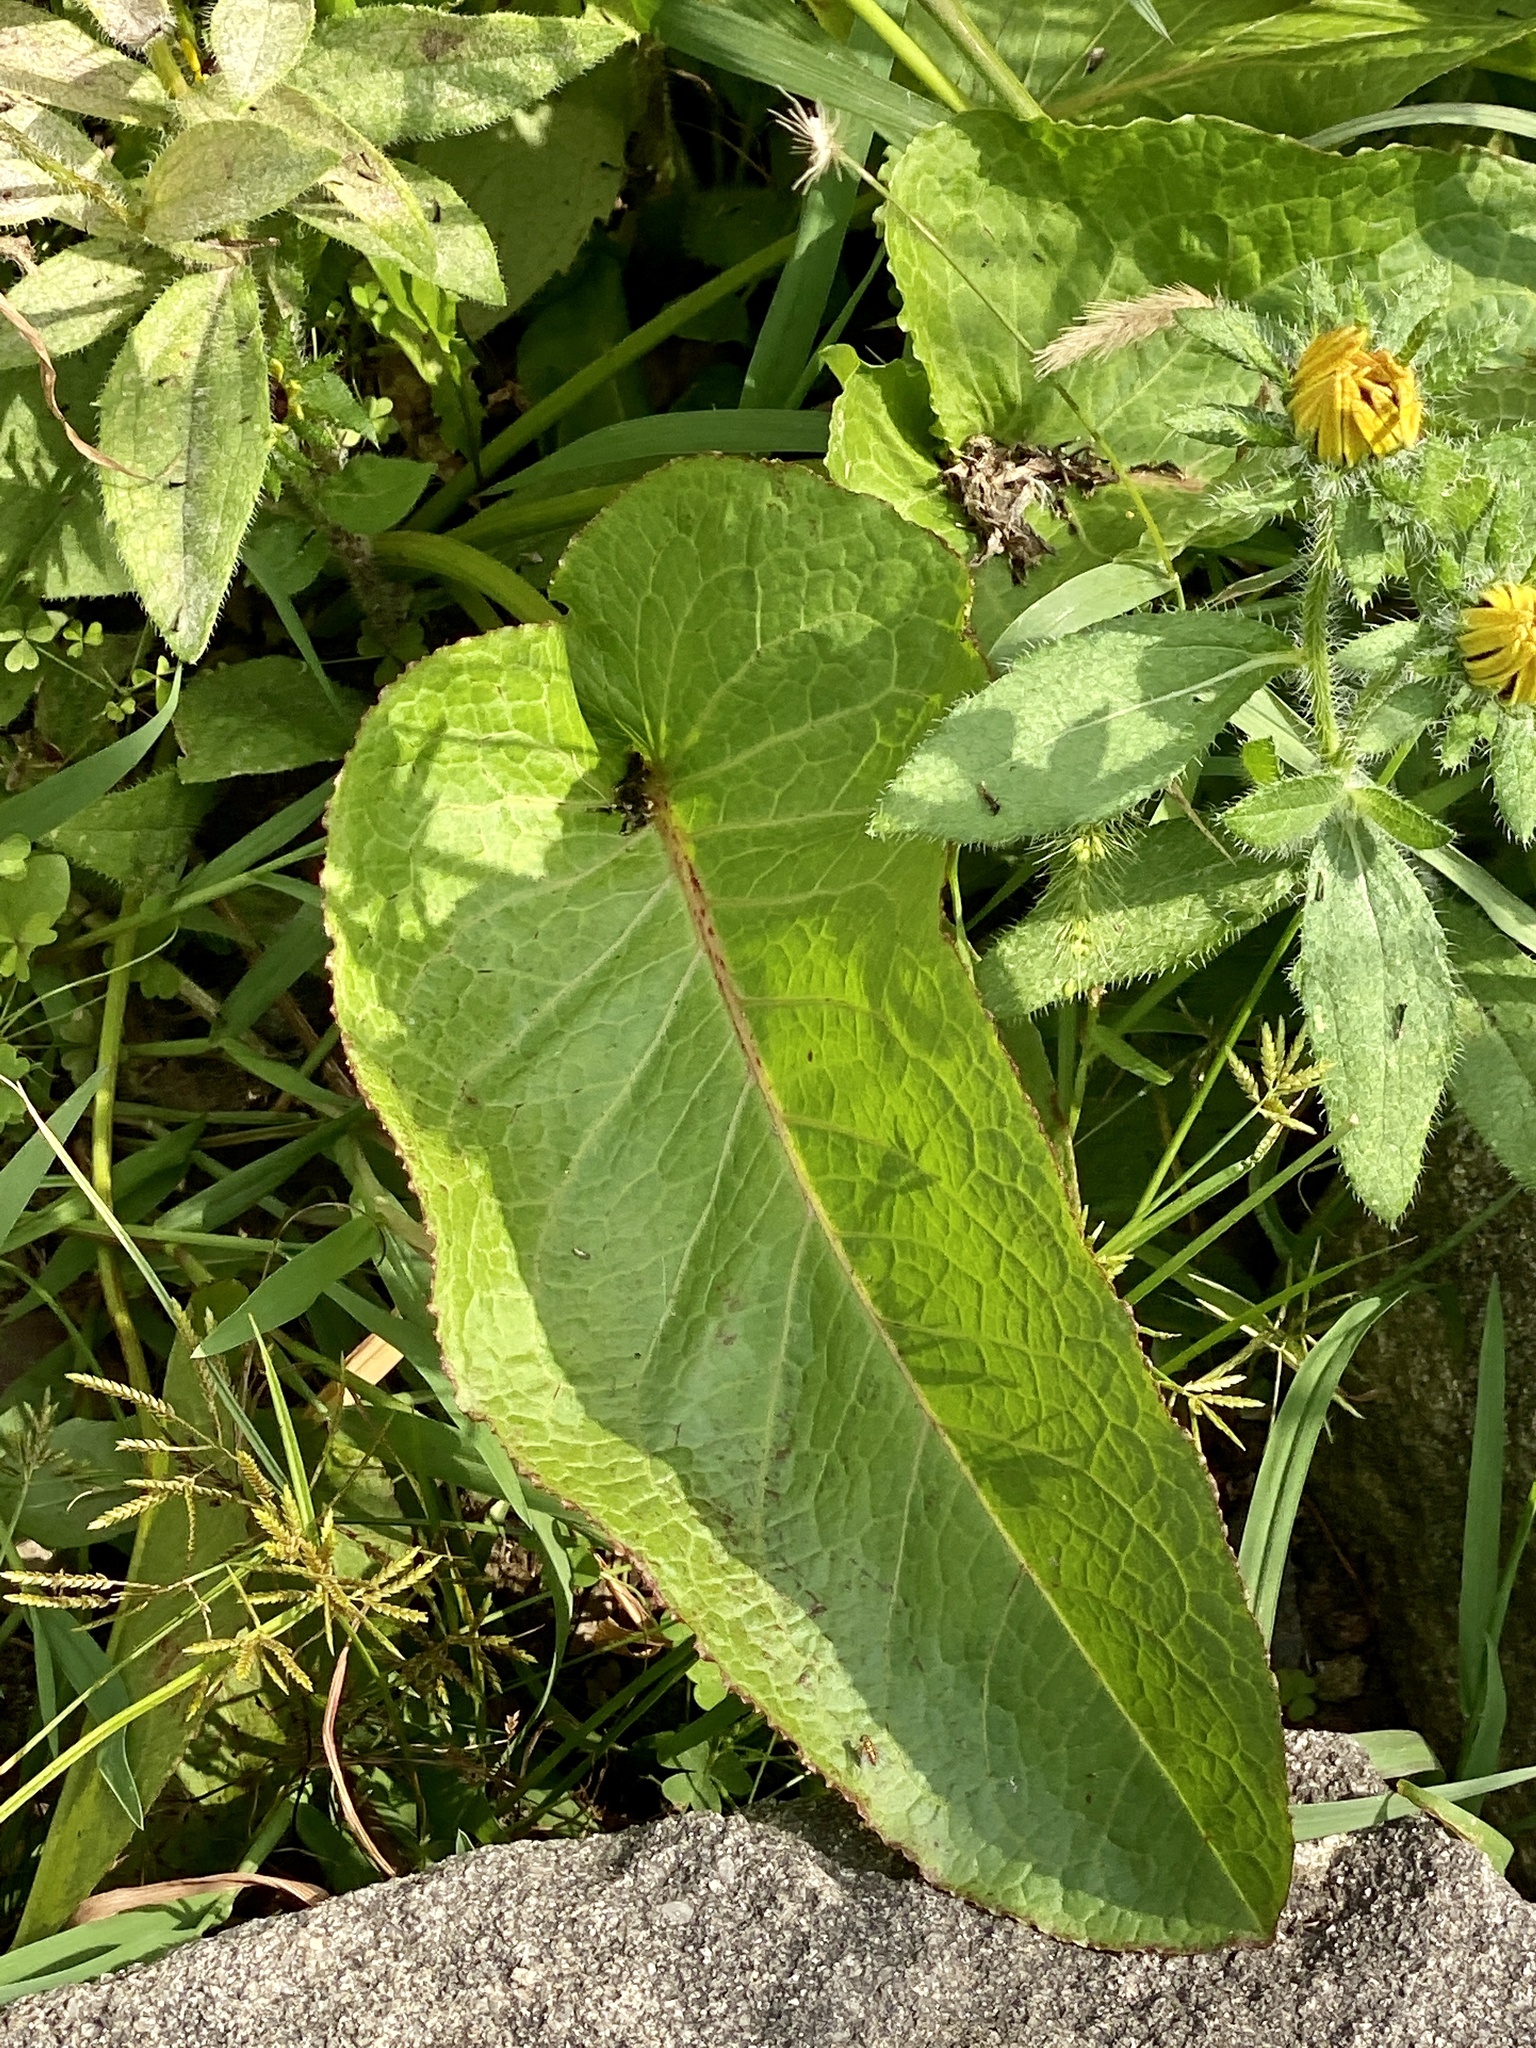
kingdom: Plantae
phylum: Tracheophyta
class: Magnoliopsida
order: Caryophyllales
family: Polygonaceae
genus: Rumex
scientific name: Rumex obtusifolius
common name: Bitter dock
